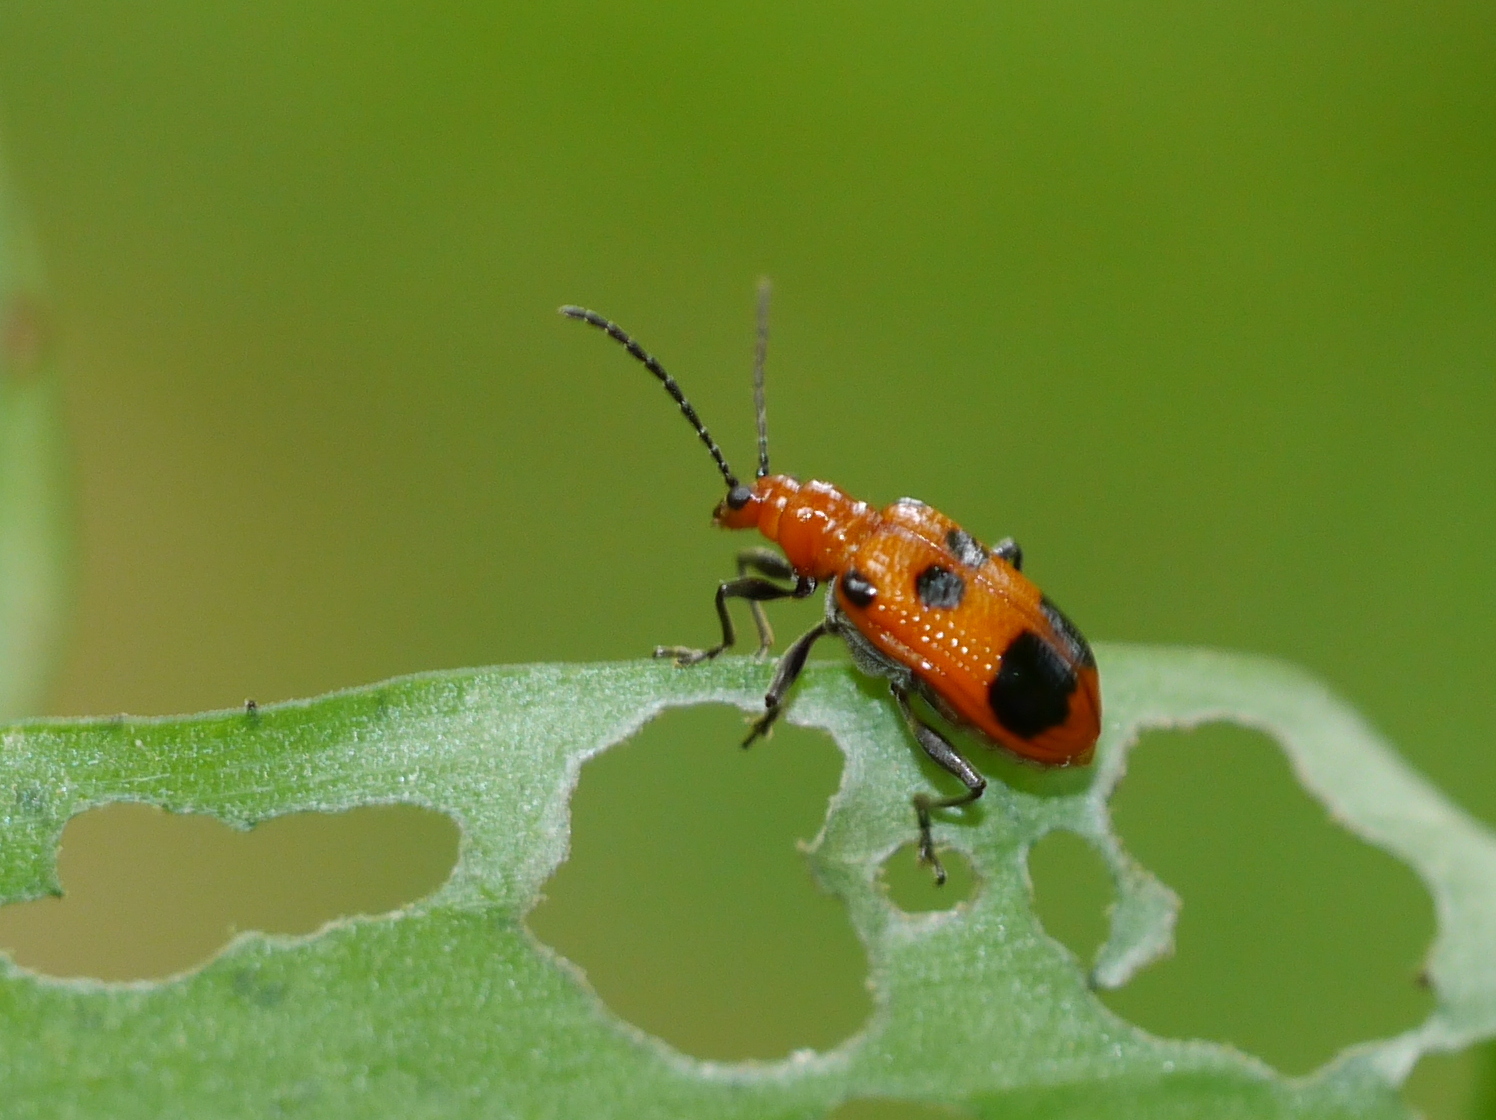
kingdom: Animalia
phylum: Arthropoda
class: Insecta
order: Coleoptera
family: Chrysomelidae
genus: Neolema
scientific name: Neolema sexpunctata
